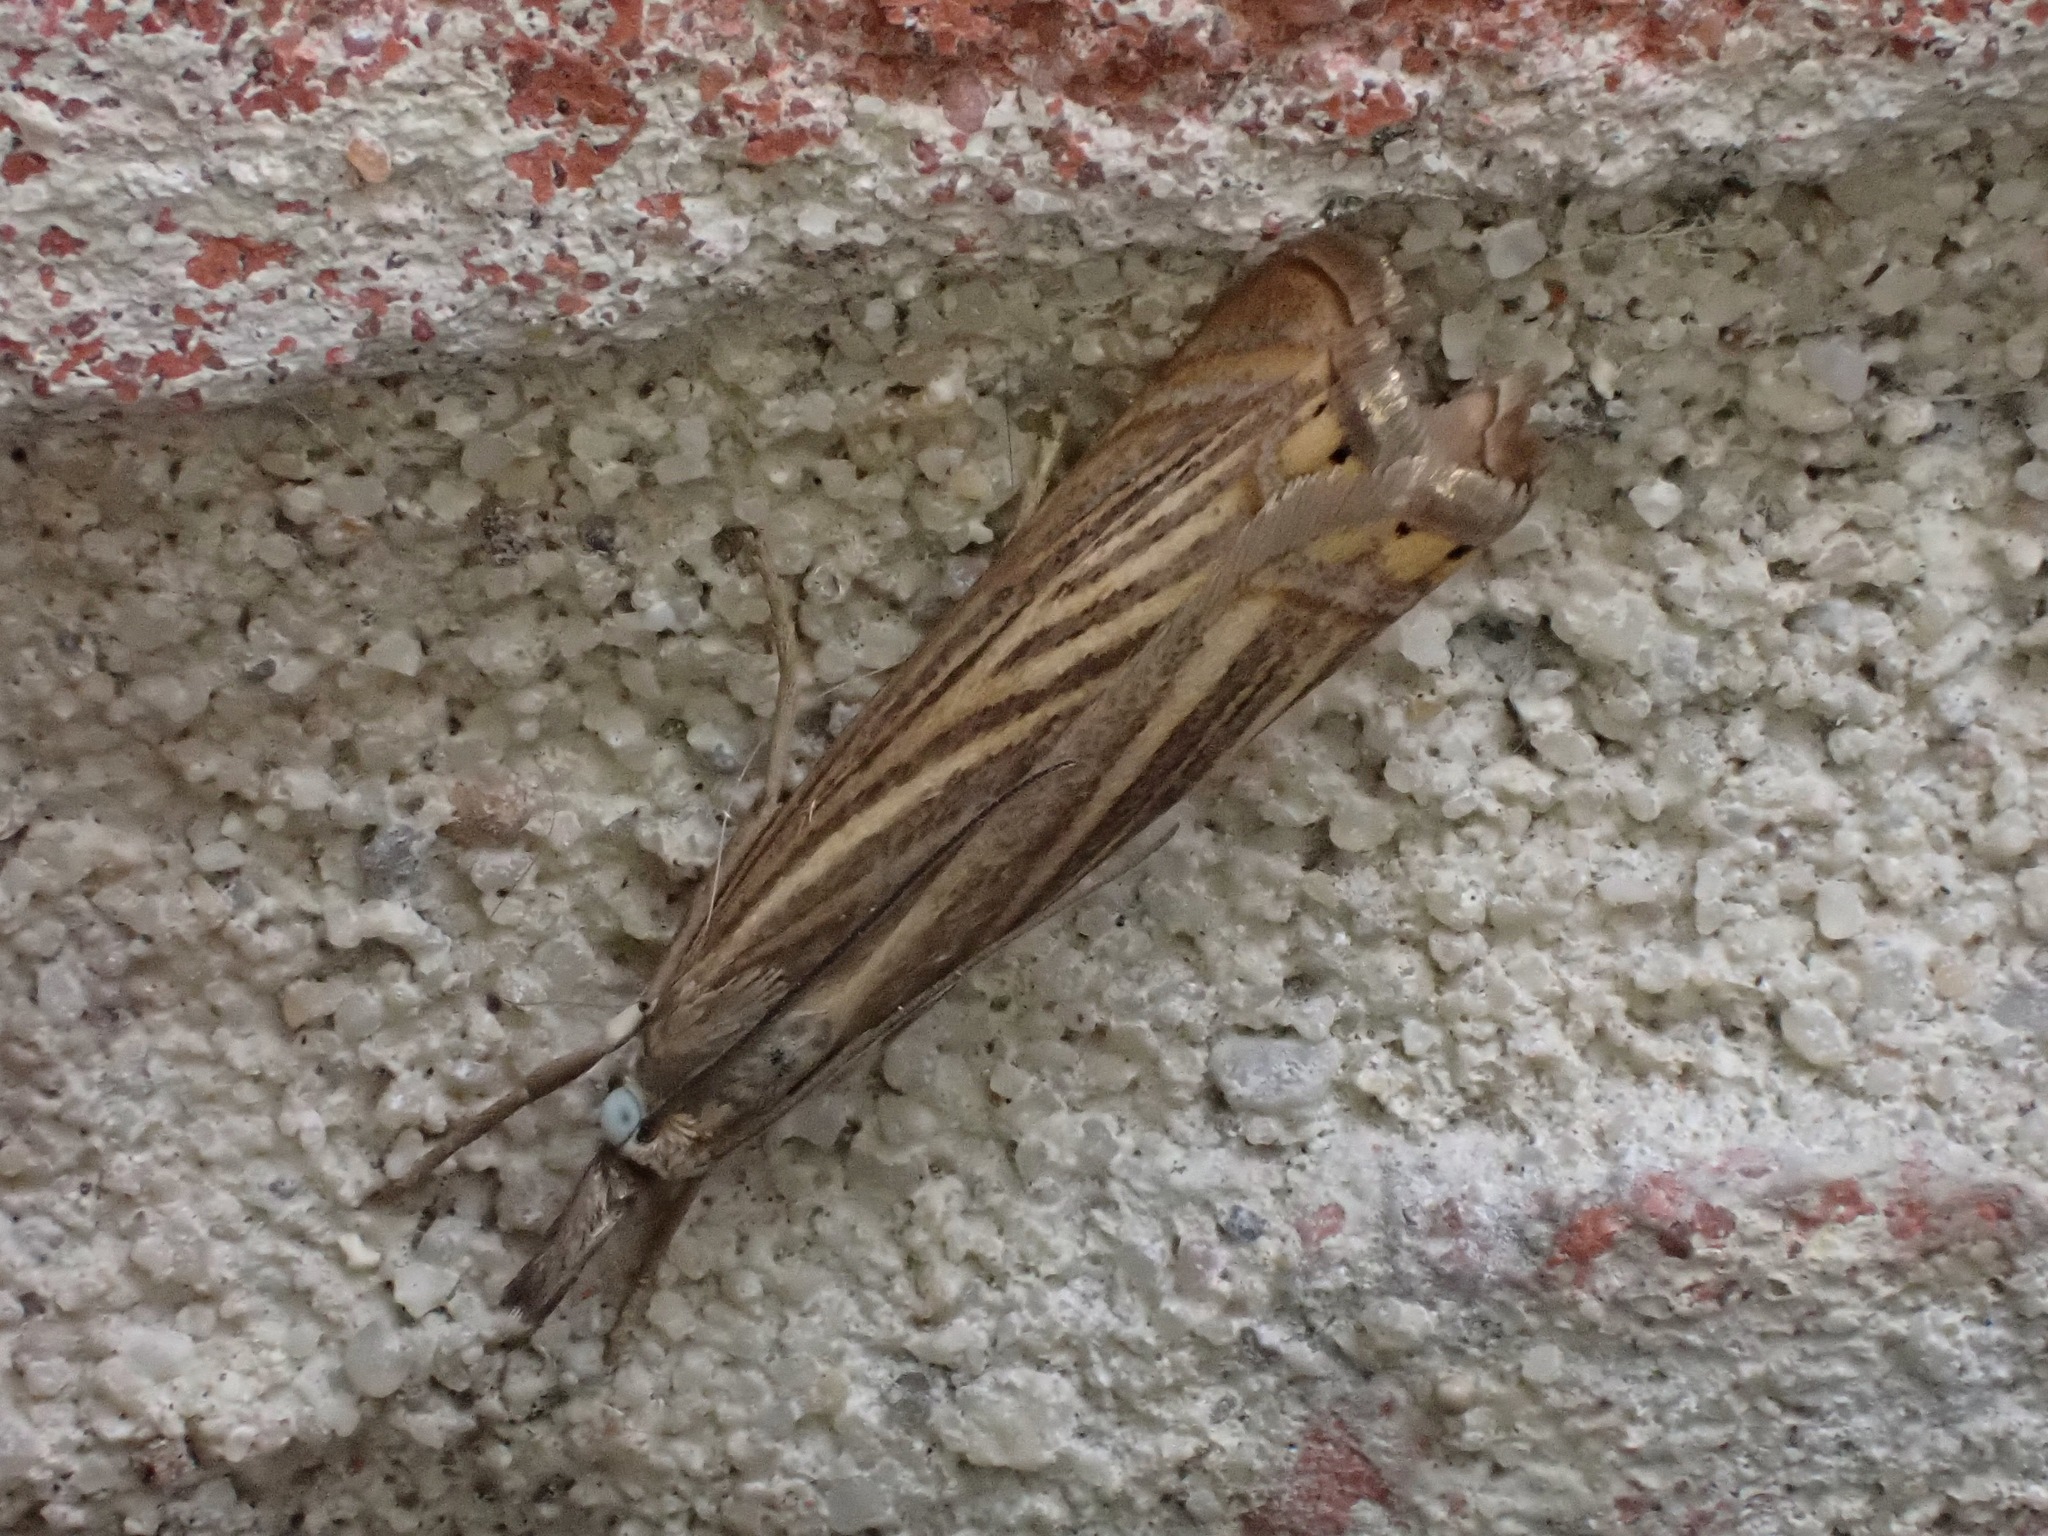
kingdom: Animalia
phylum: Arthropoda
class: Insecta
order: Lepidoptera
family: Crambidae
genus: Chrysoteuchia
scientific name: Chrysoteuchia culmella
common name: Garden grass-veneer
